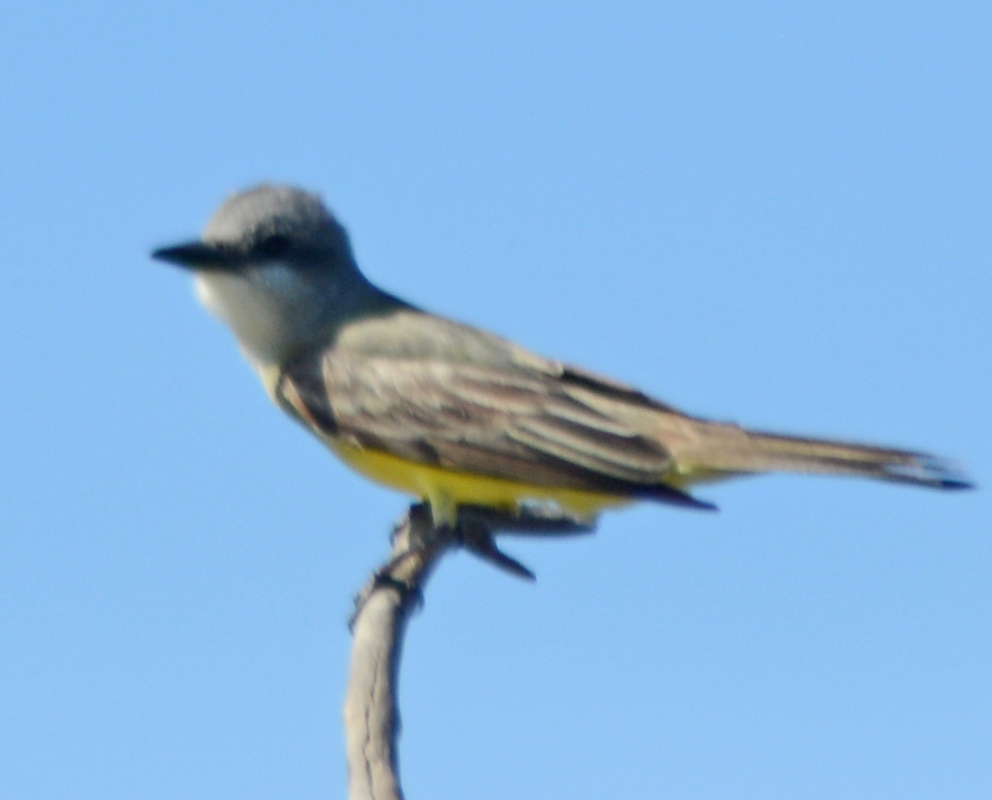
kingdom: Animalia
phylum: Chordata
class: Aves
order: Passeriformes
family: Tyrannidae
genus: Tyrannus
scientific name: Tyrannus melancholicus
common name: Tropical kingbird
